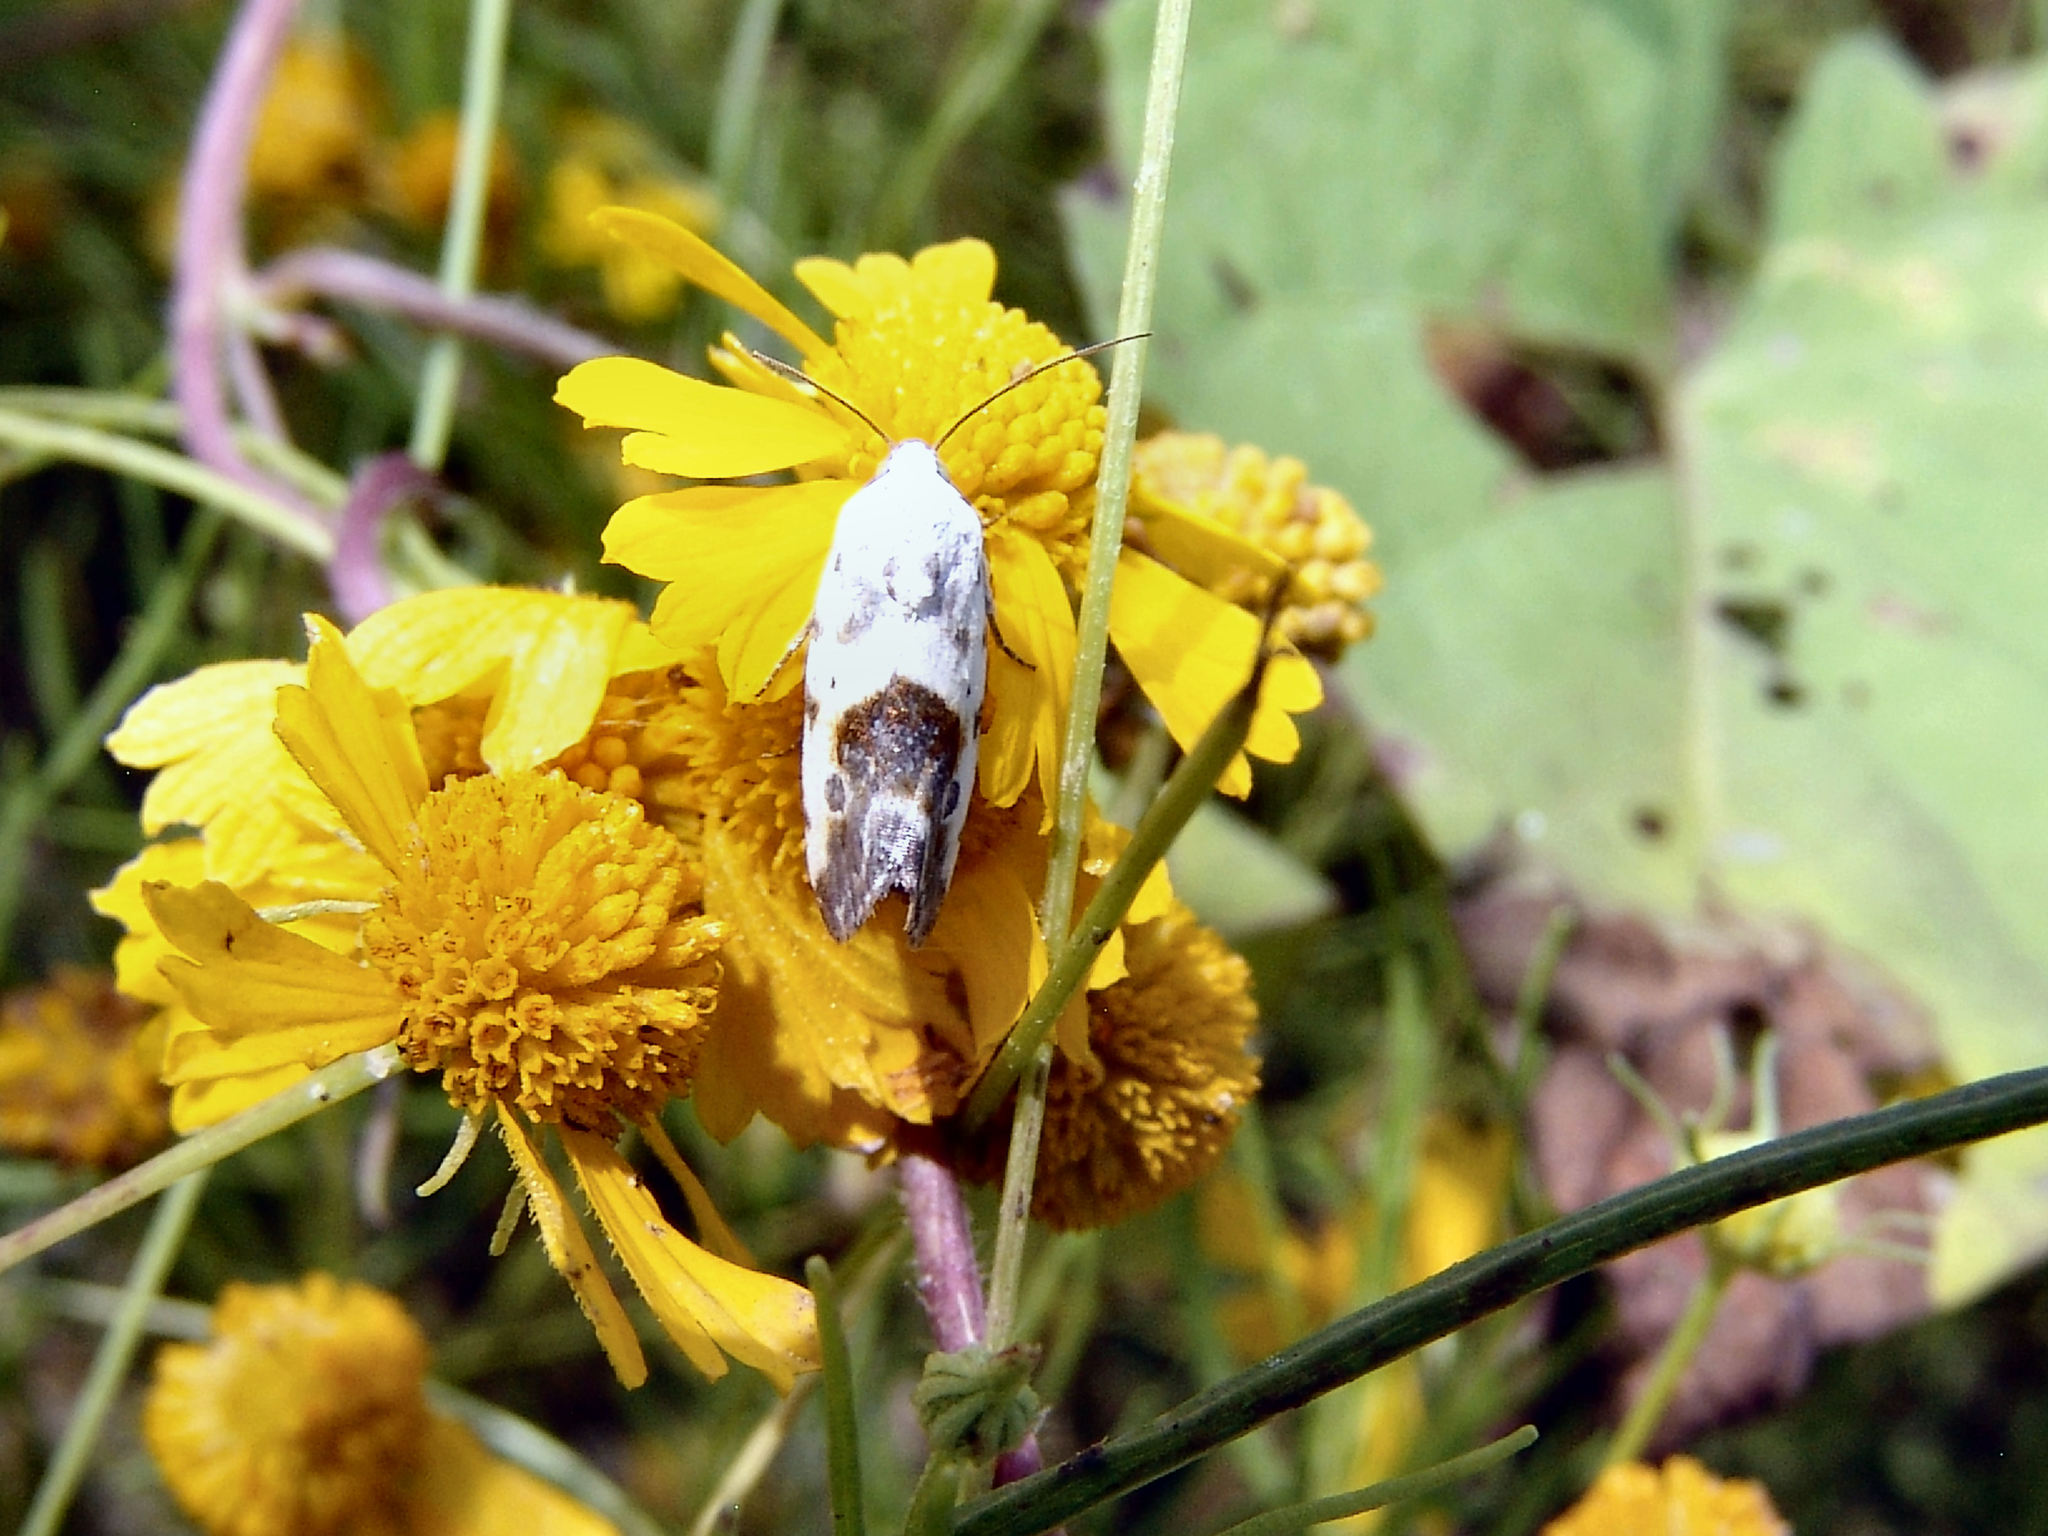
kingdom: Animalia
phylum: Arthropoda
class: Insecta
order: Lepidoptera
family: Noctuidae
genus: Acontia
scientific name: Acontia candefacta
